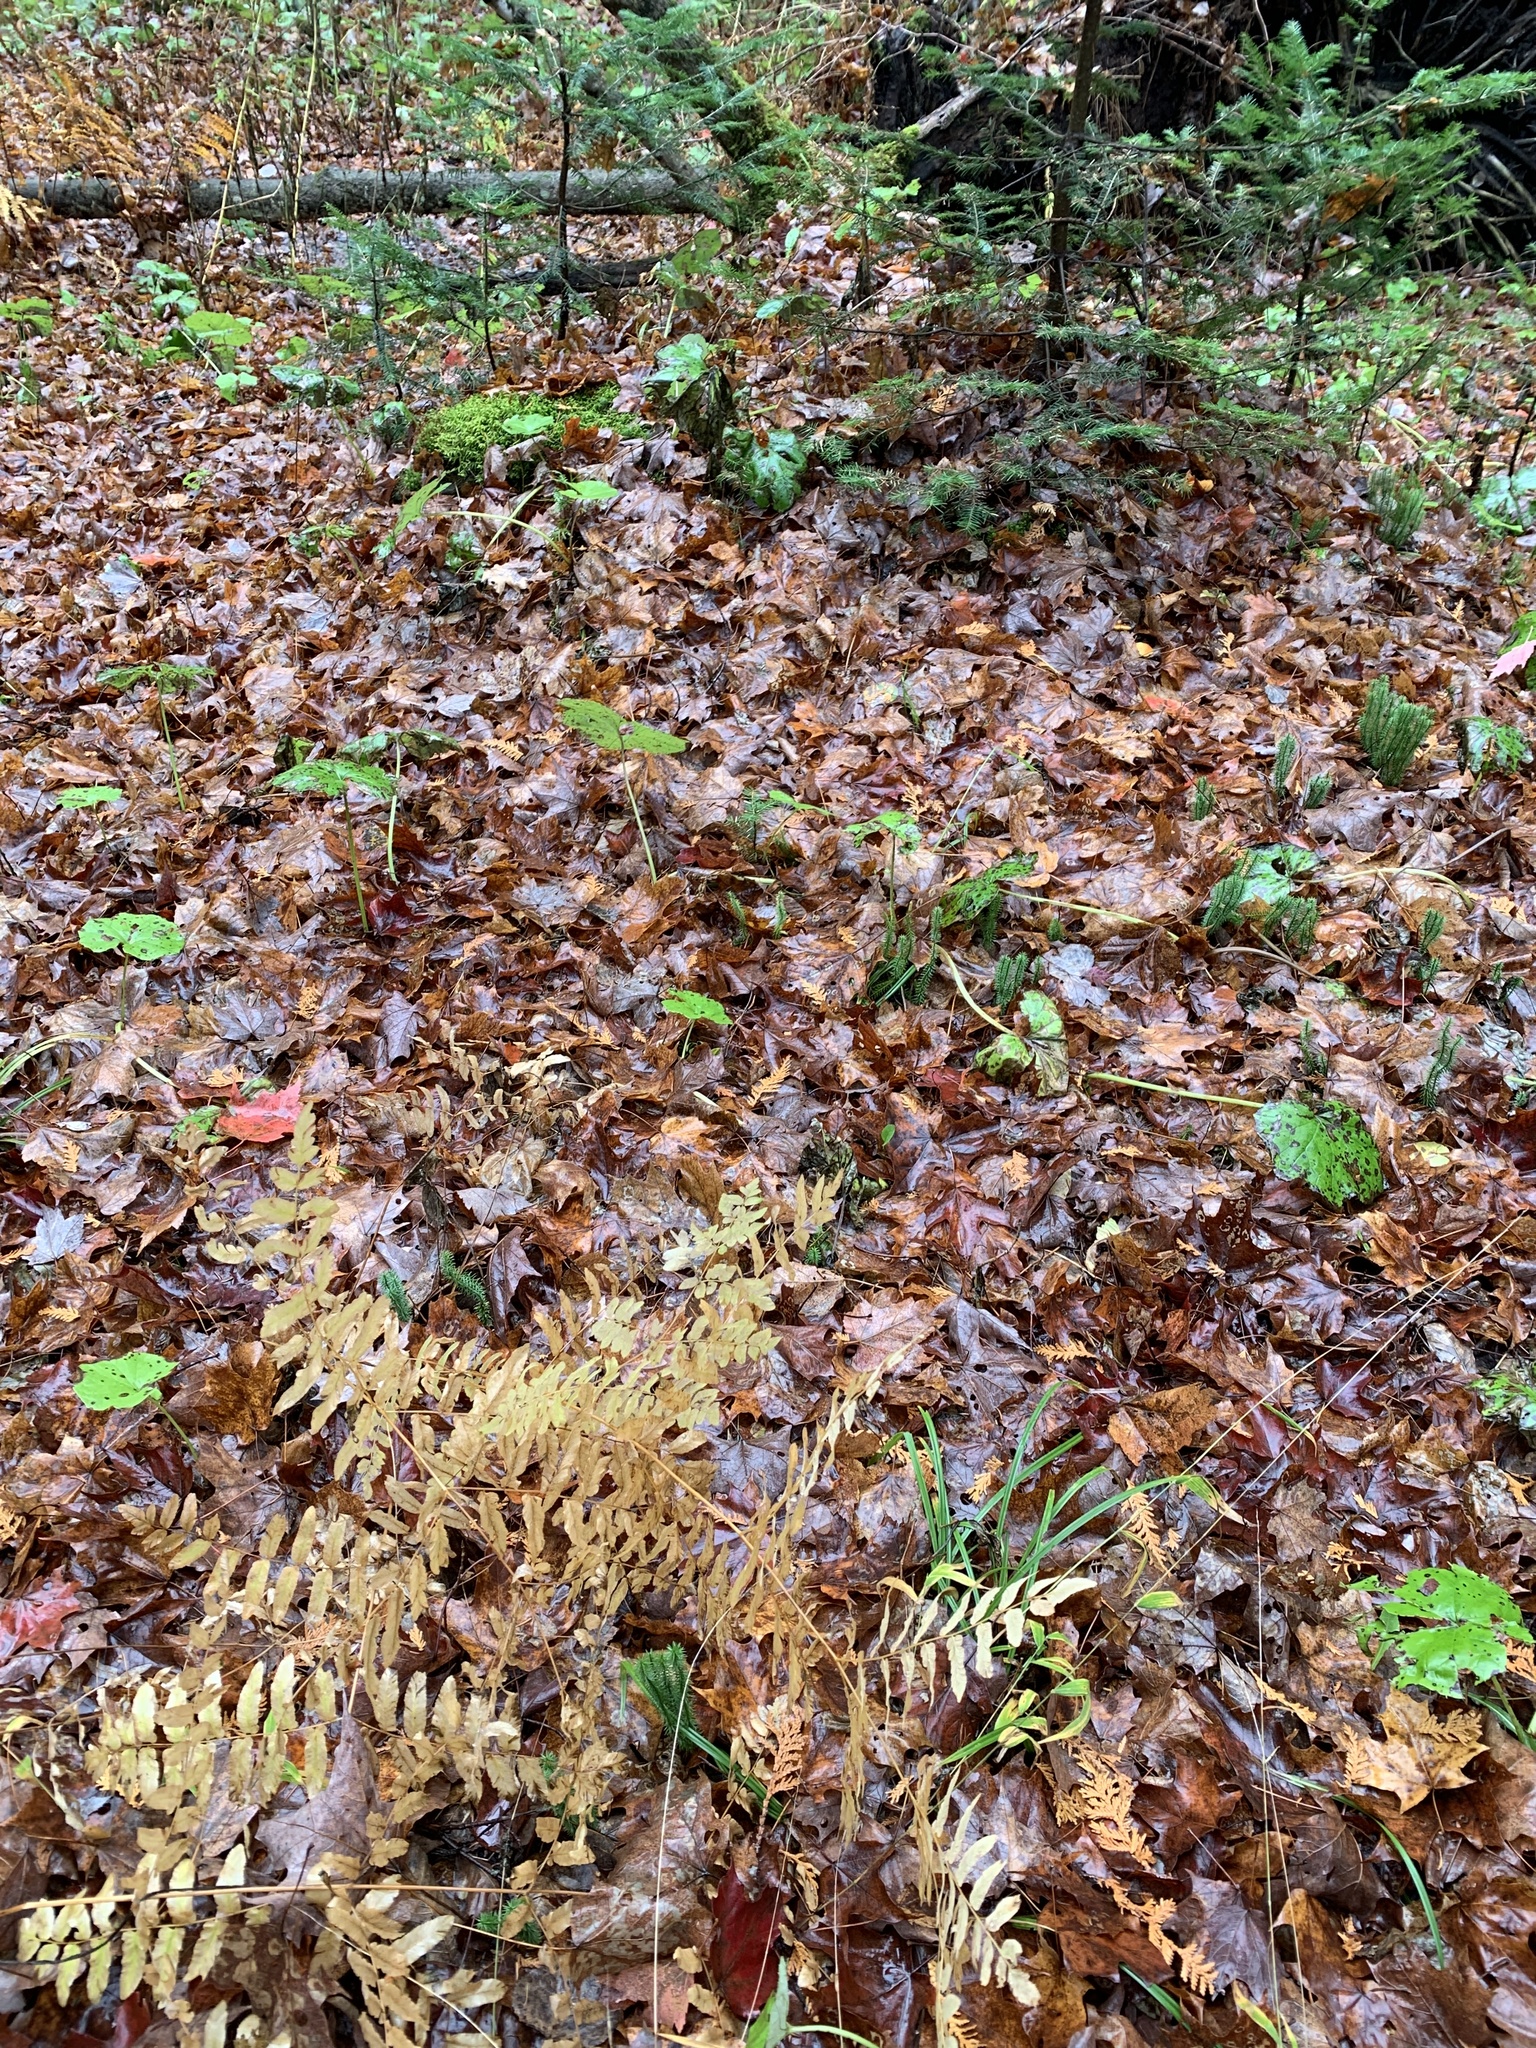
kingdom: Plantae
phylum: Tracheophyta
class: Polypodiopsida
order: Osmundales
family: Osmundaceae
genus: Osmunda
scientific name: Osmunda spectabilis
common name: American royal fern
